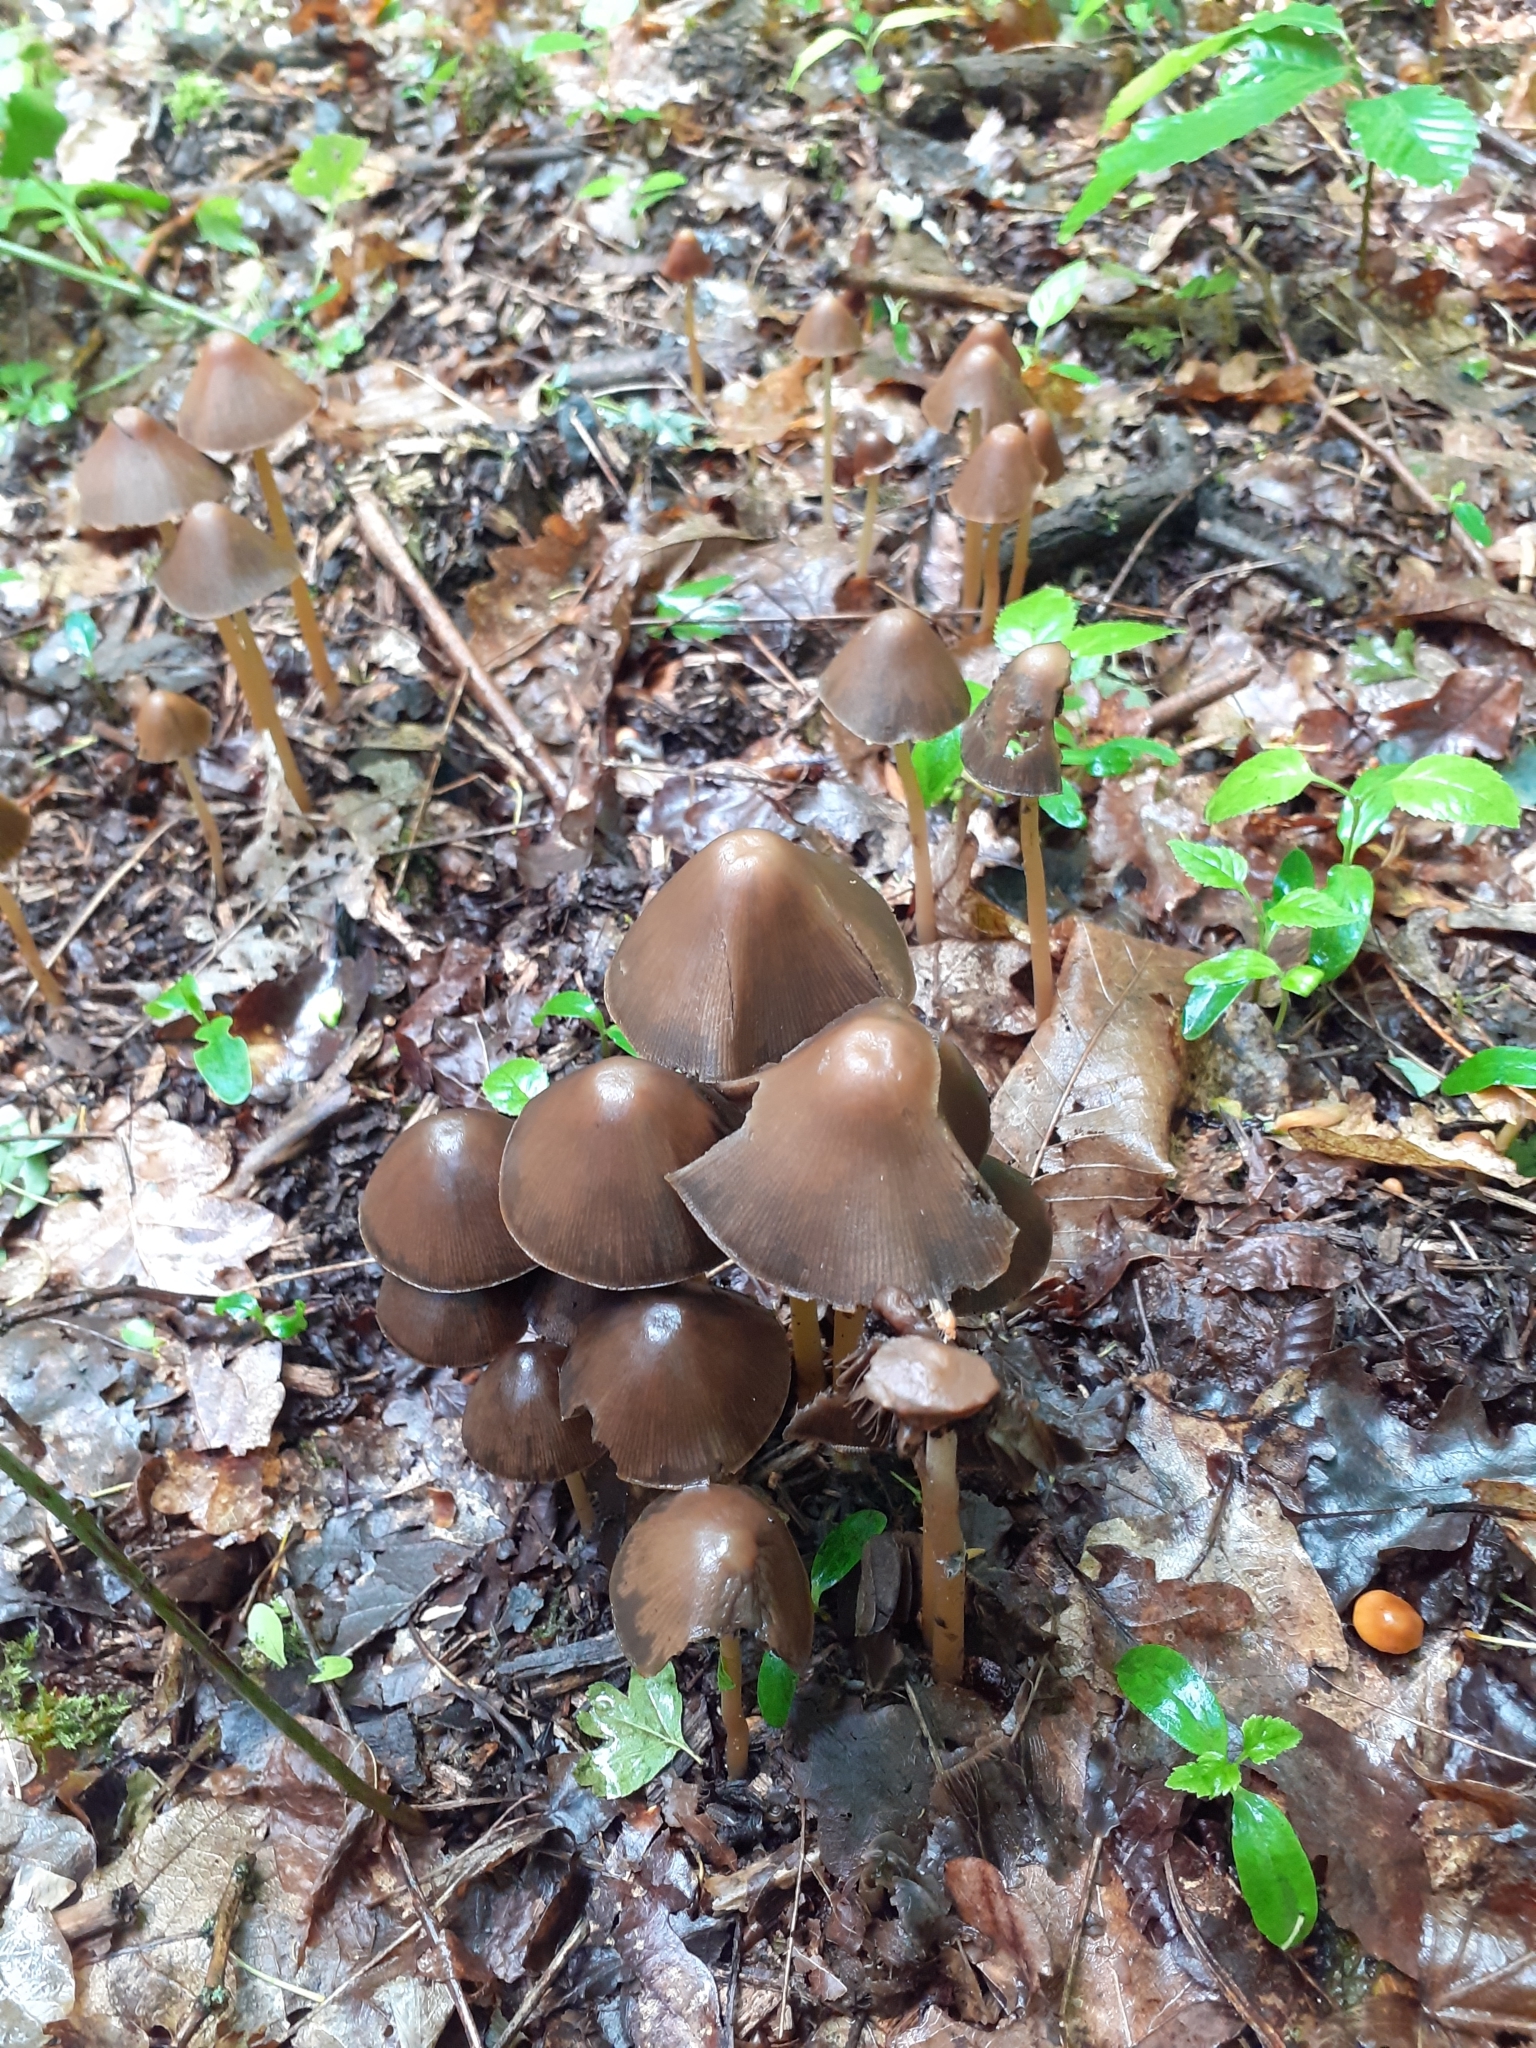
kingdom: Fungi
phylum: Basidiomycota
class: Agaricomycetes
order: Agaricales
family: Psathyrellaceae
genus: Parasola
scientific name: Parasola conopilea
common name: Conical brittlestem
